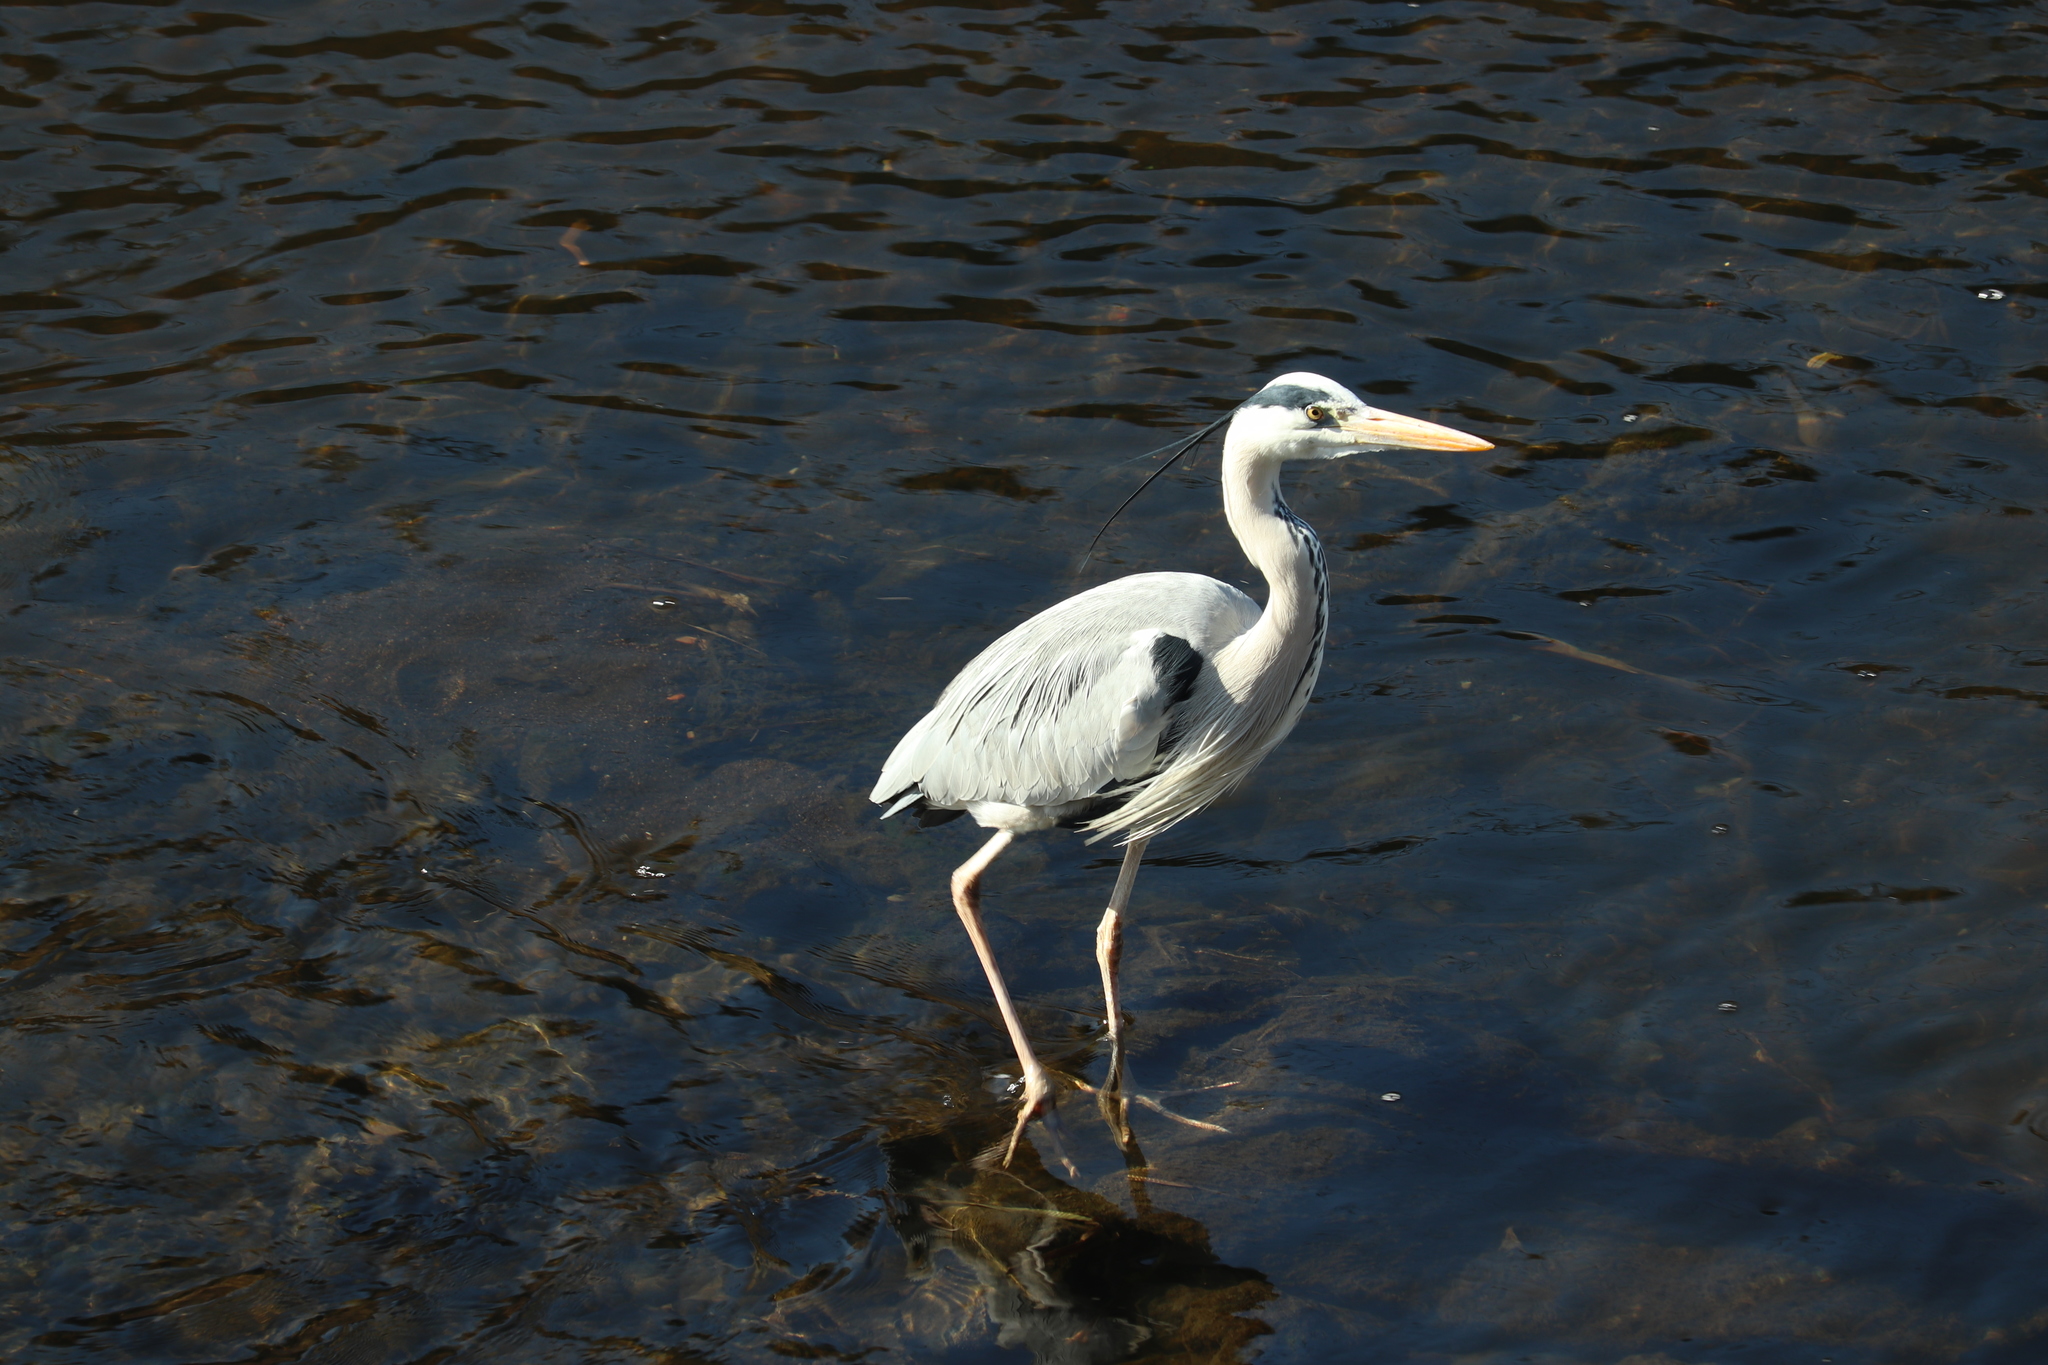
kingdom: Animalia
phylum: Chordata
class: Aves
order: Pelecaniformes
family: Ardeidae
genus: Ardea
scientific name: Ardea cinerea
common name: Grey heron
